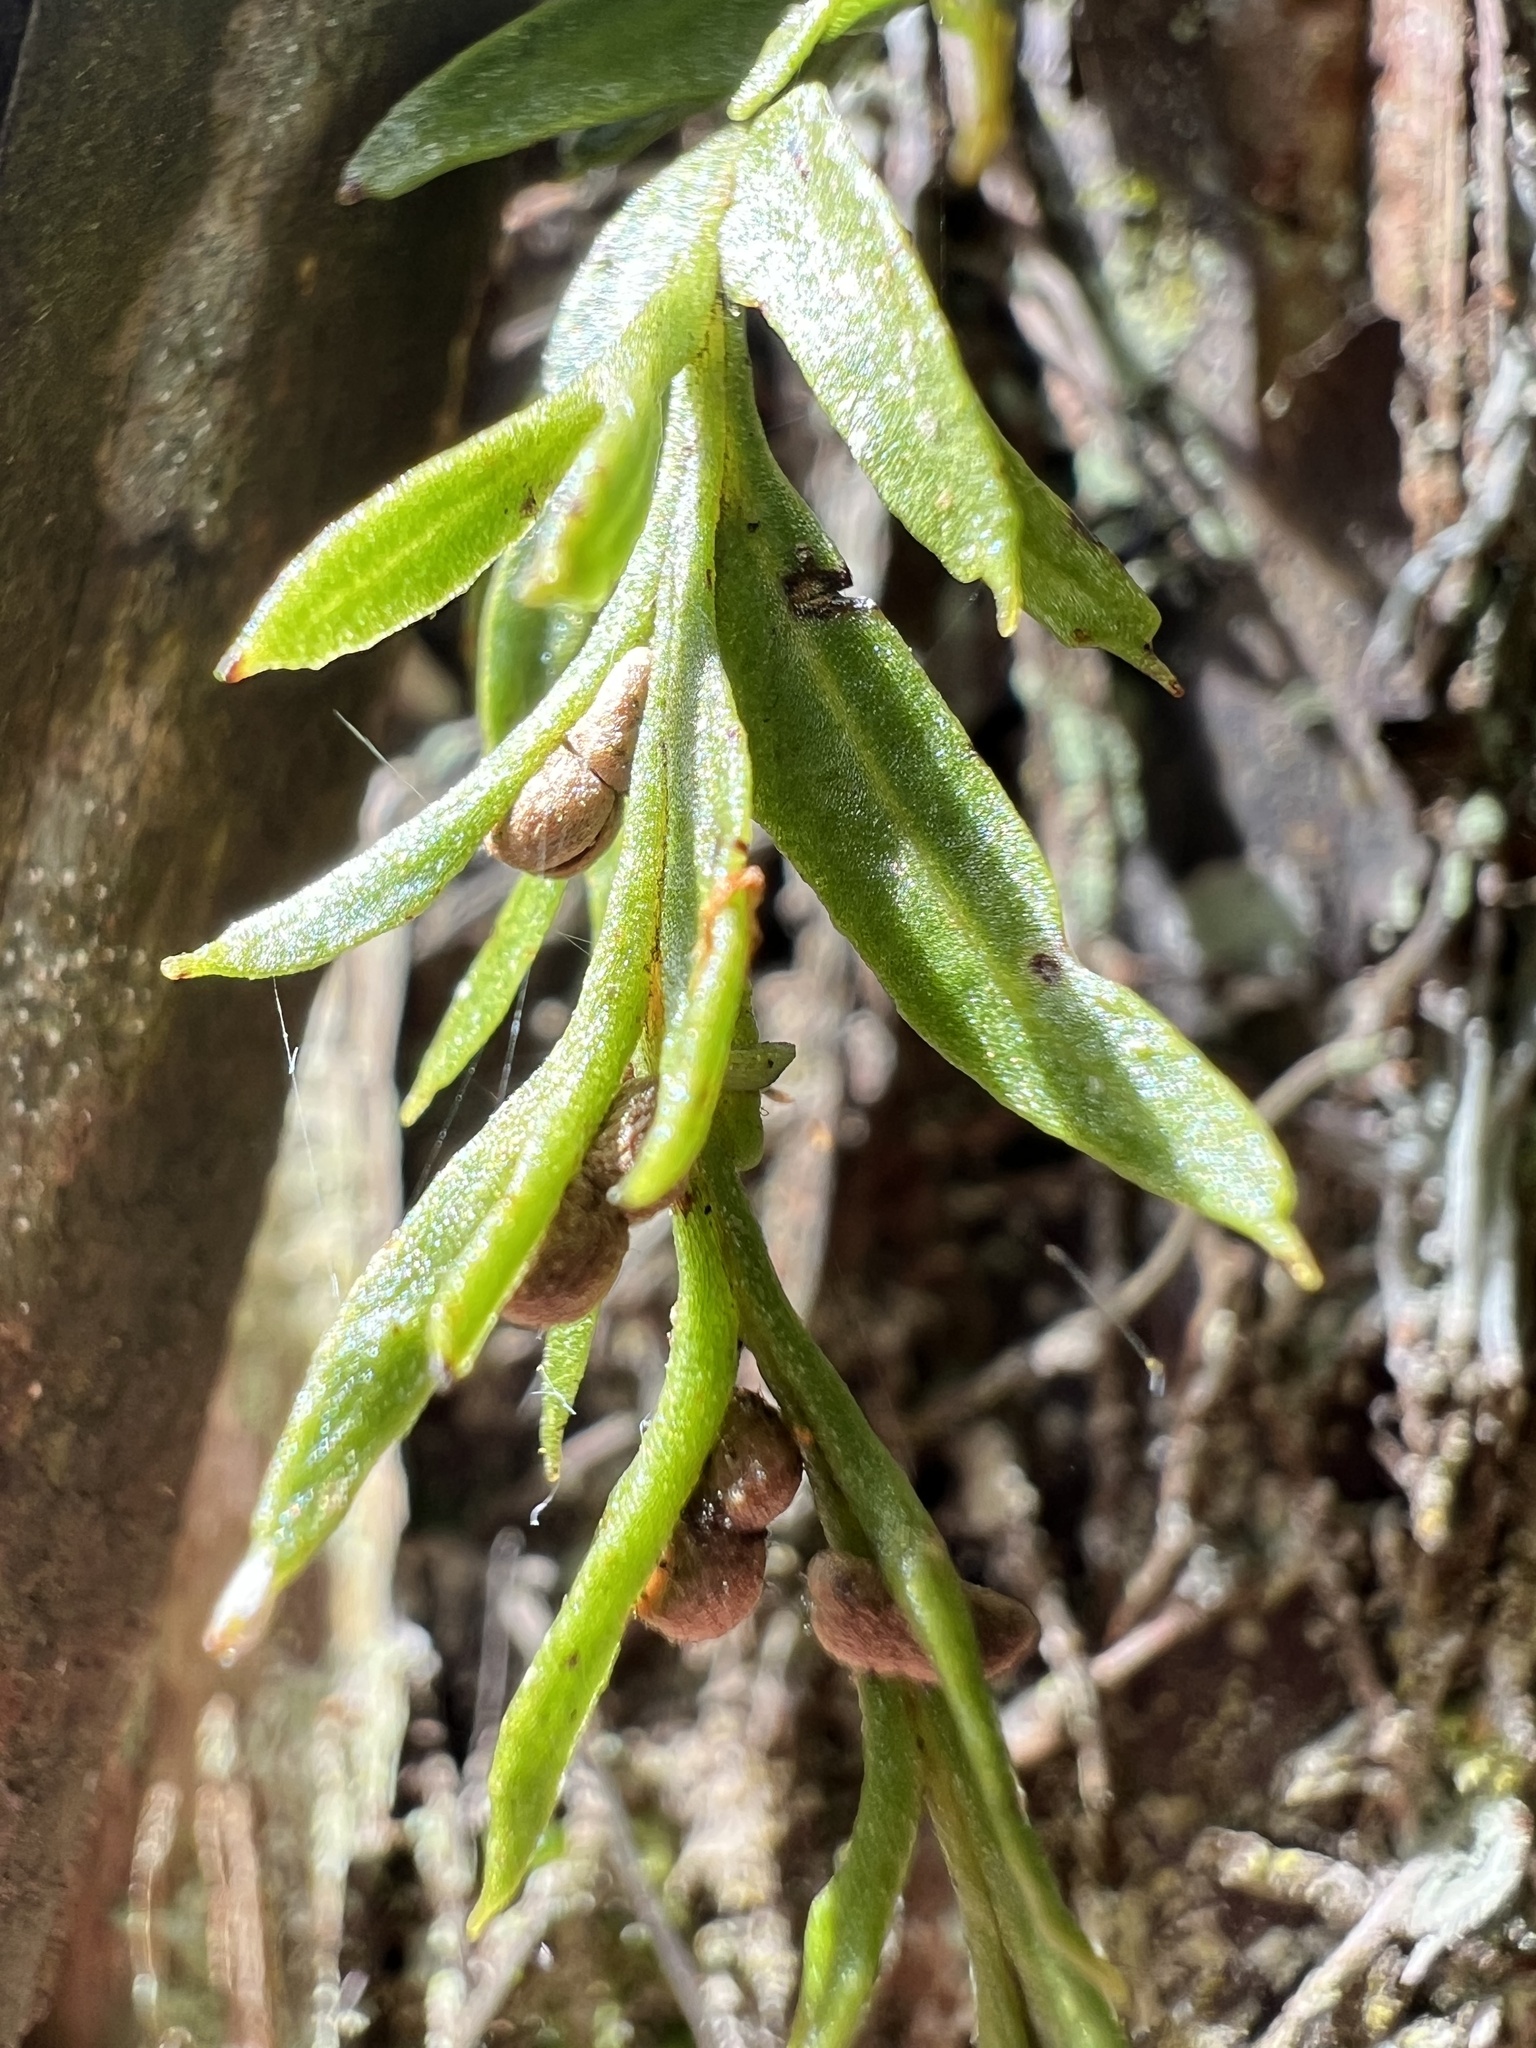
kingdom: Plantae
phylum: Tracheophyta
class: Polypodiopsida
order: Psilotales
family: Psilotaceae
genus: Tmesipteris
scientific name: Tmesipteris elongata
